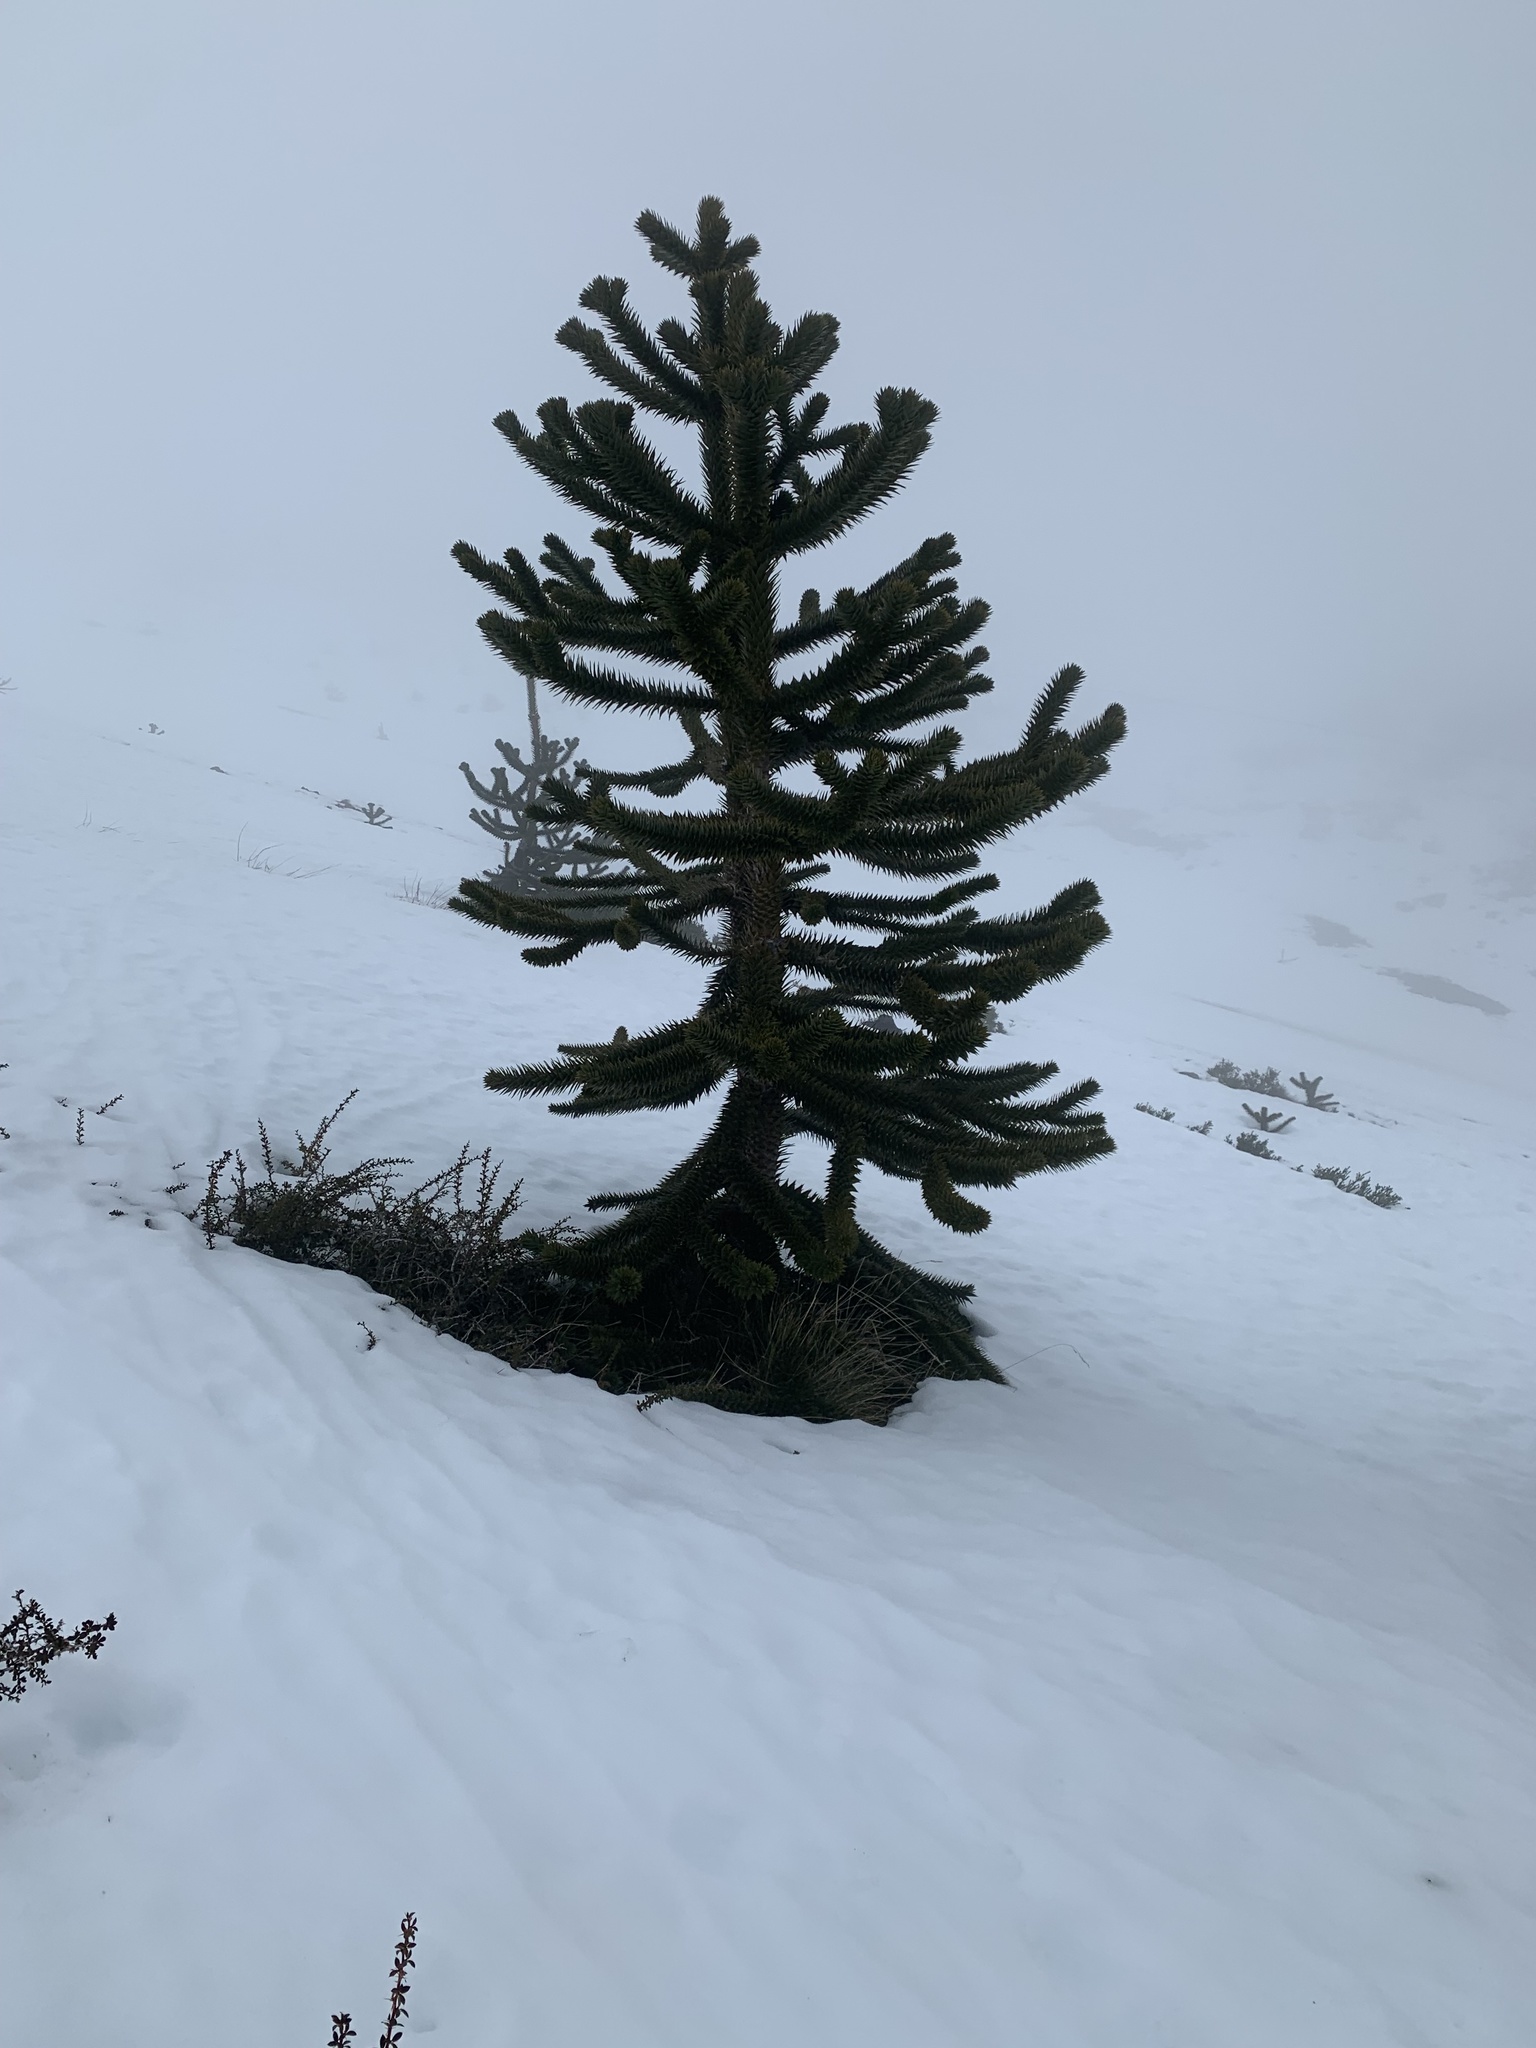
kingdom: Plantae
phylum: Tracheophyta
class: Pinopsida
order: Pinales
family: Araucariaceae
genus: Araucaria
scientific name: Araucaria araucana
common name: Monkey-puzzle
